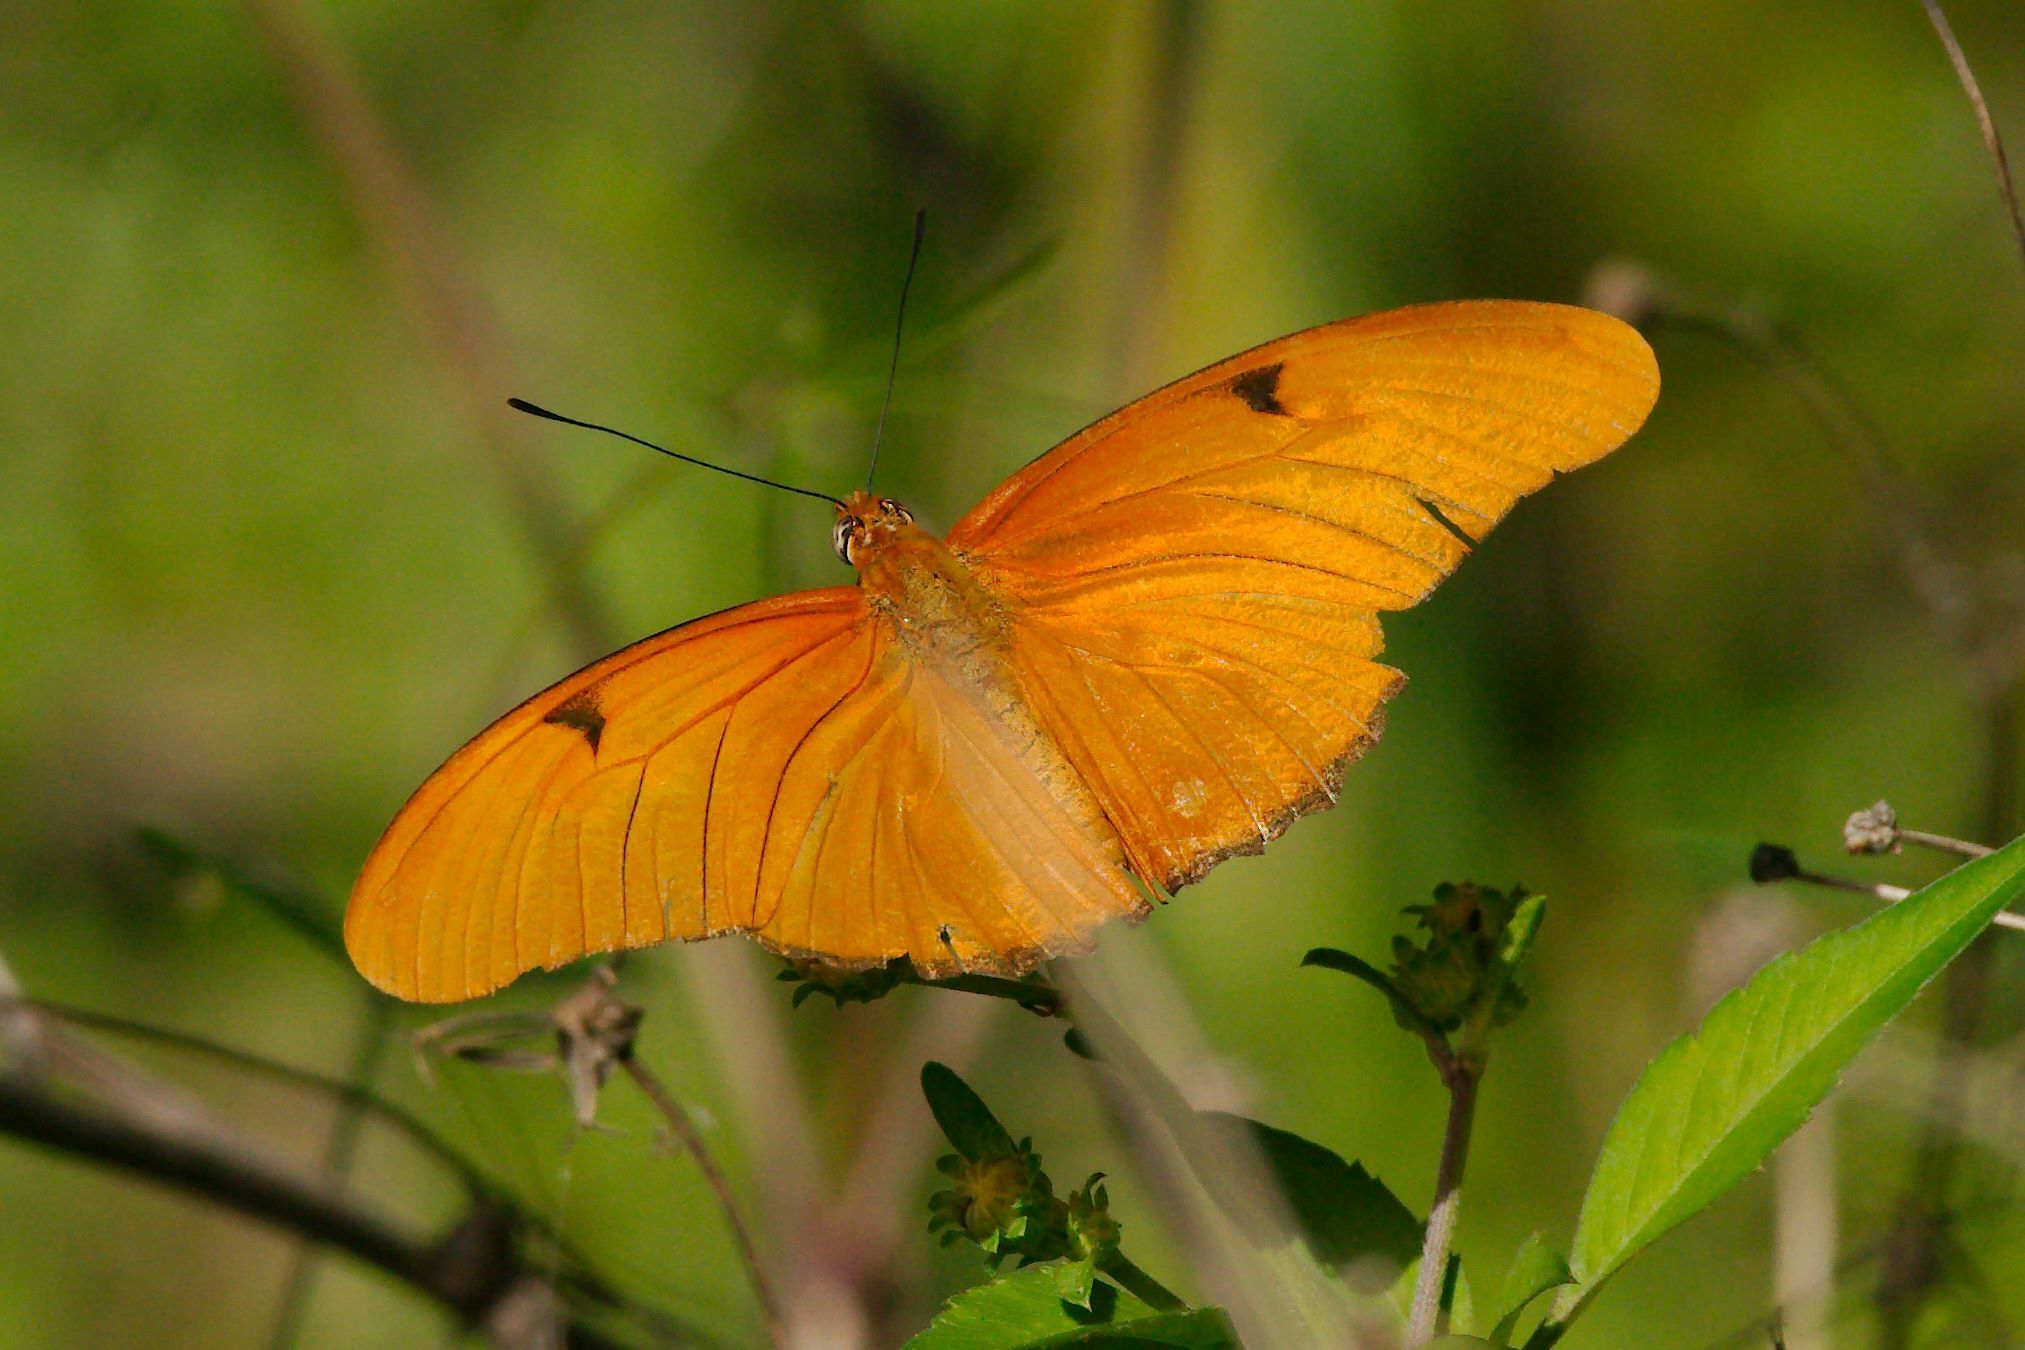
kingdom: Animalia
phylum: Arthropoda
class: Insecta
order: Lepidoptera
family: Nymphalidae
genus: Dryas
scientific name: Dryas iulia
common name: Flambeau
